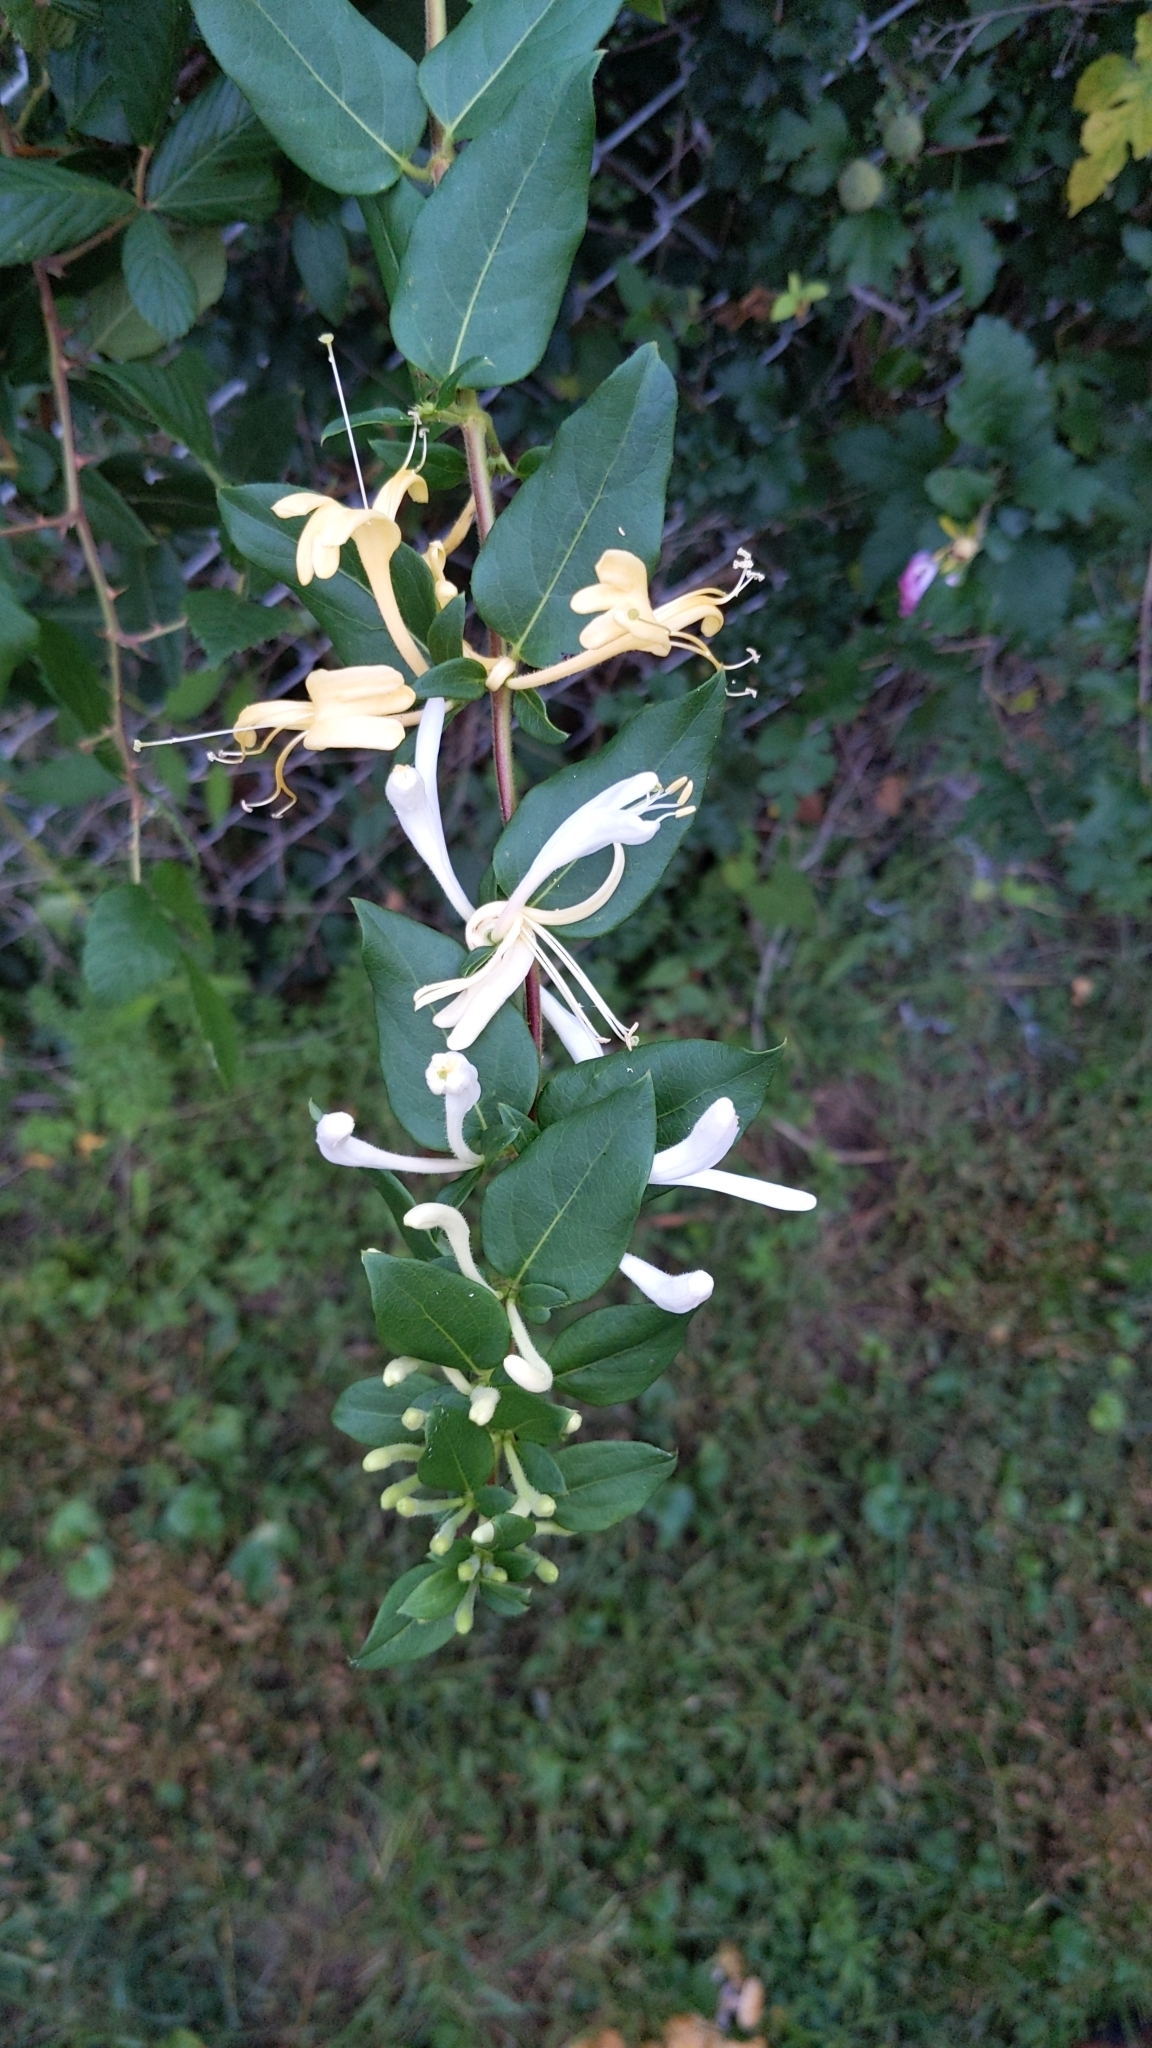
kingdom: Plantae
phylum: Tracheophyta
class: Magnoliopsida
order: Dipsacales
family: Caprifoliaceae
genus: Lonicera
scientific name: Lonicera japonica
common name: Japanese honeysuckle
